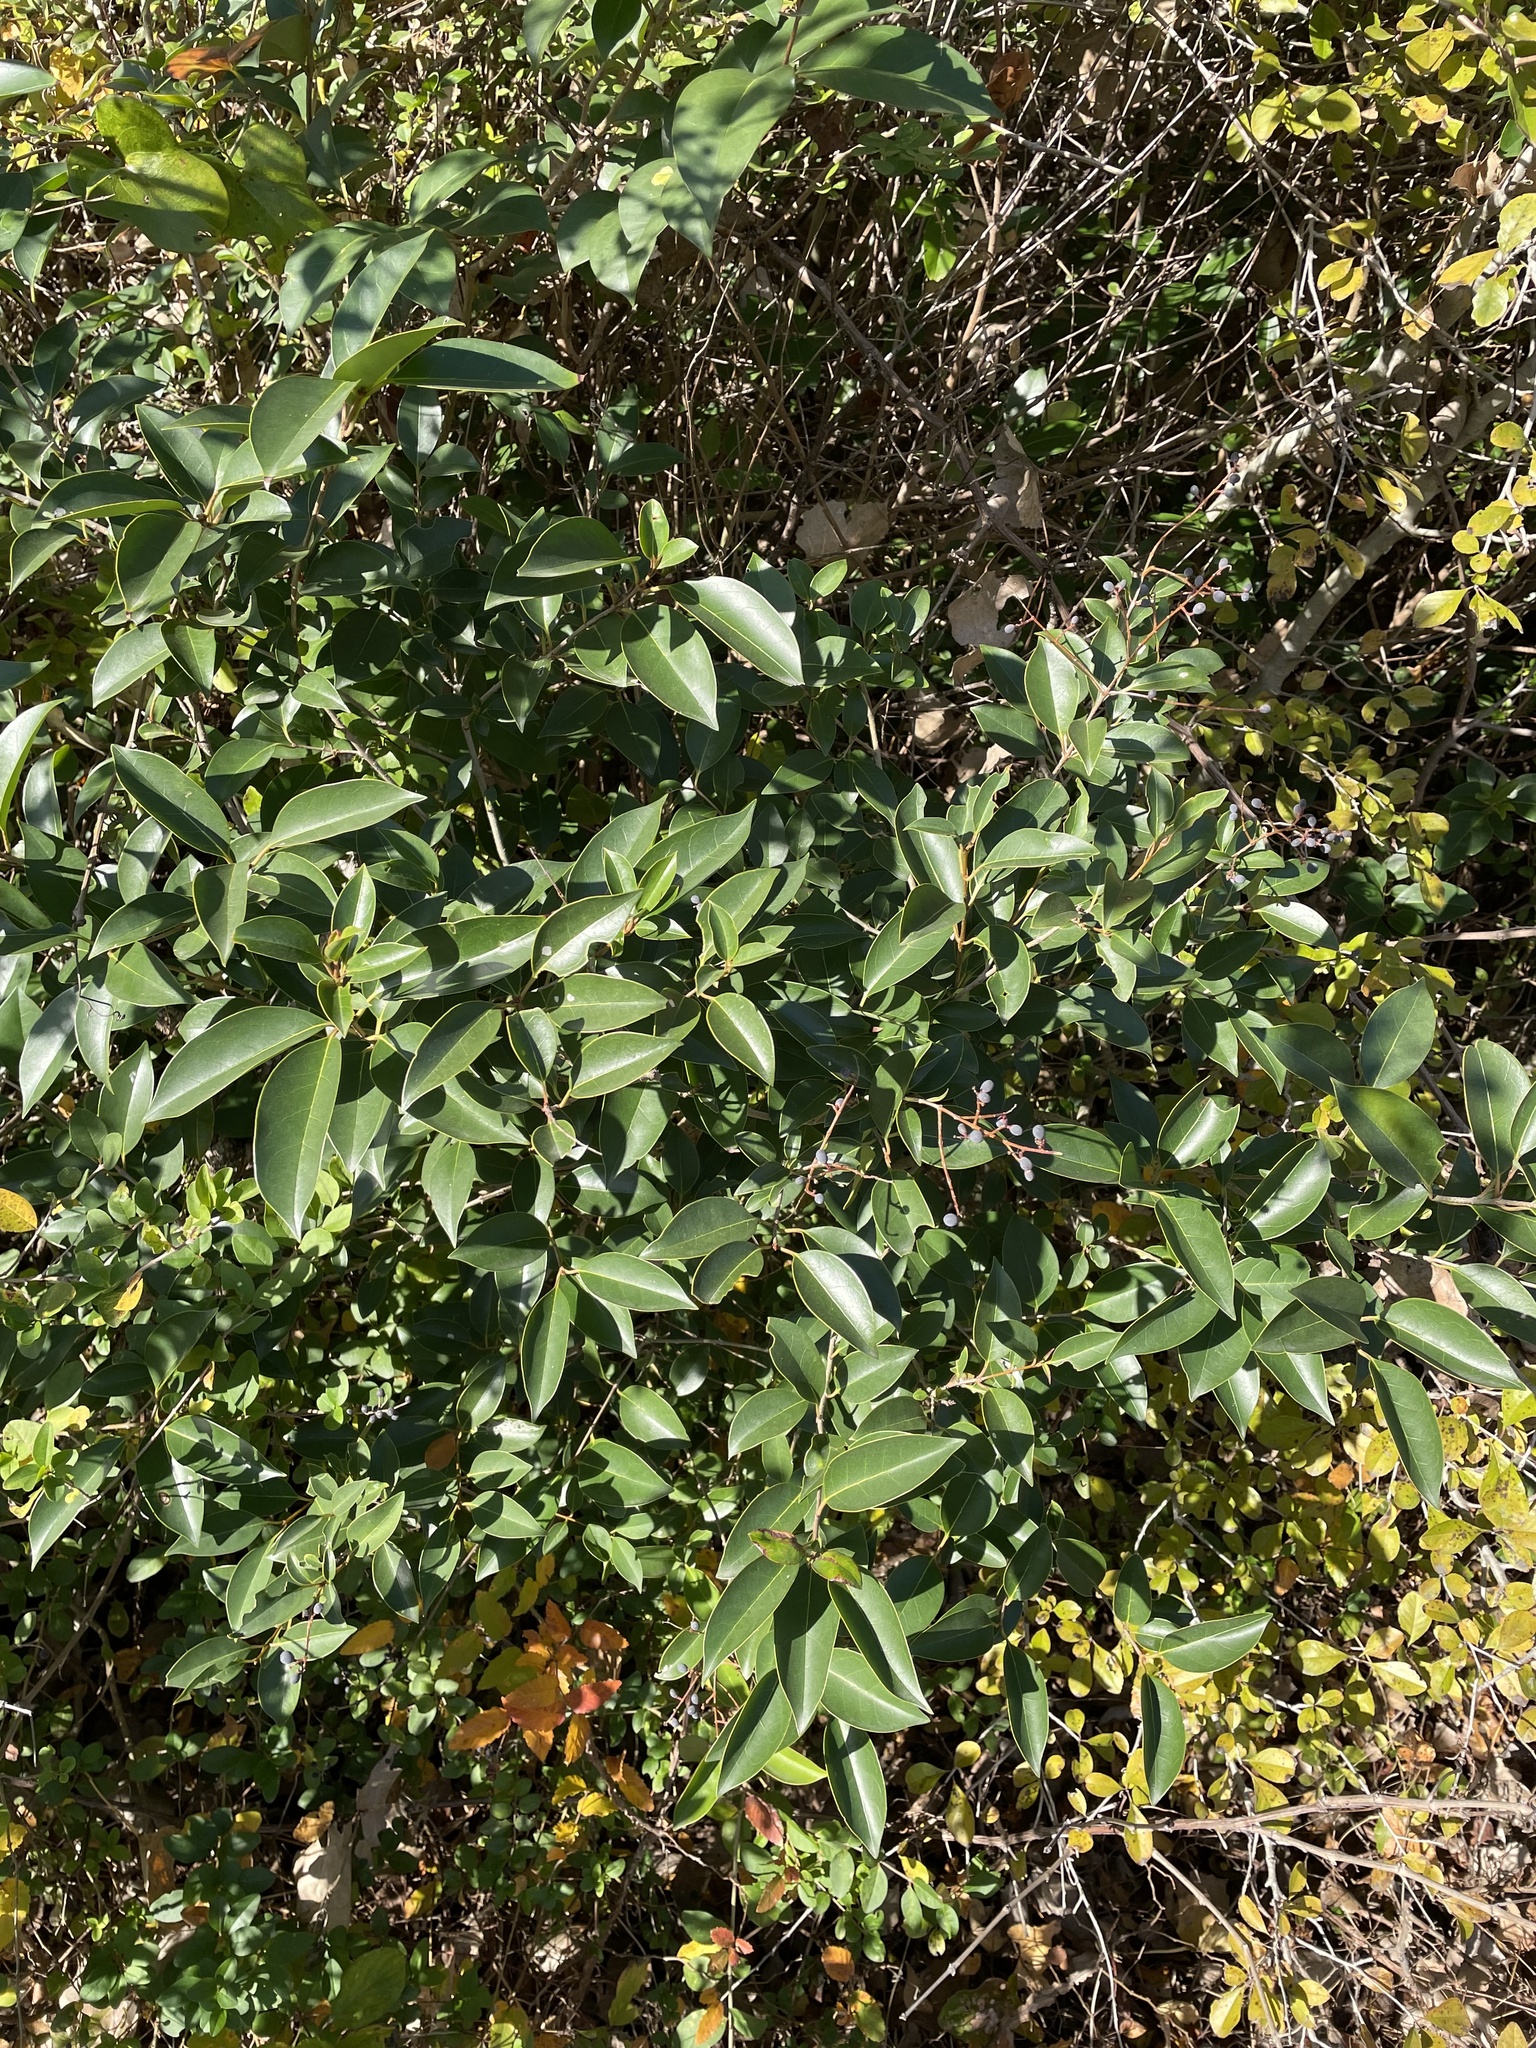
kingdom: Plantae
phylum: Tracheophyta
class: Magnoliopsida
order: Lamiales
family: Oleaceae
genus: Ligustrum
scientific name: Ligustrum lucidum
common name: Glossy privet
